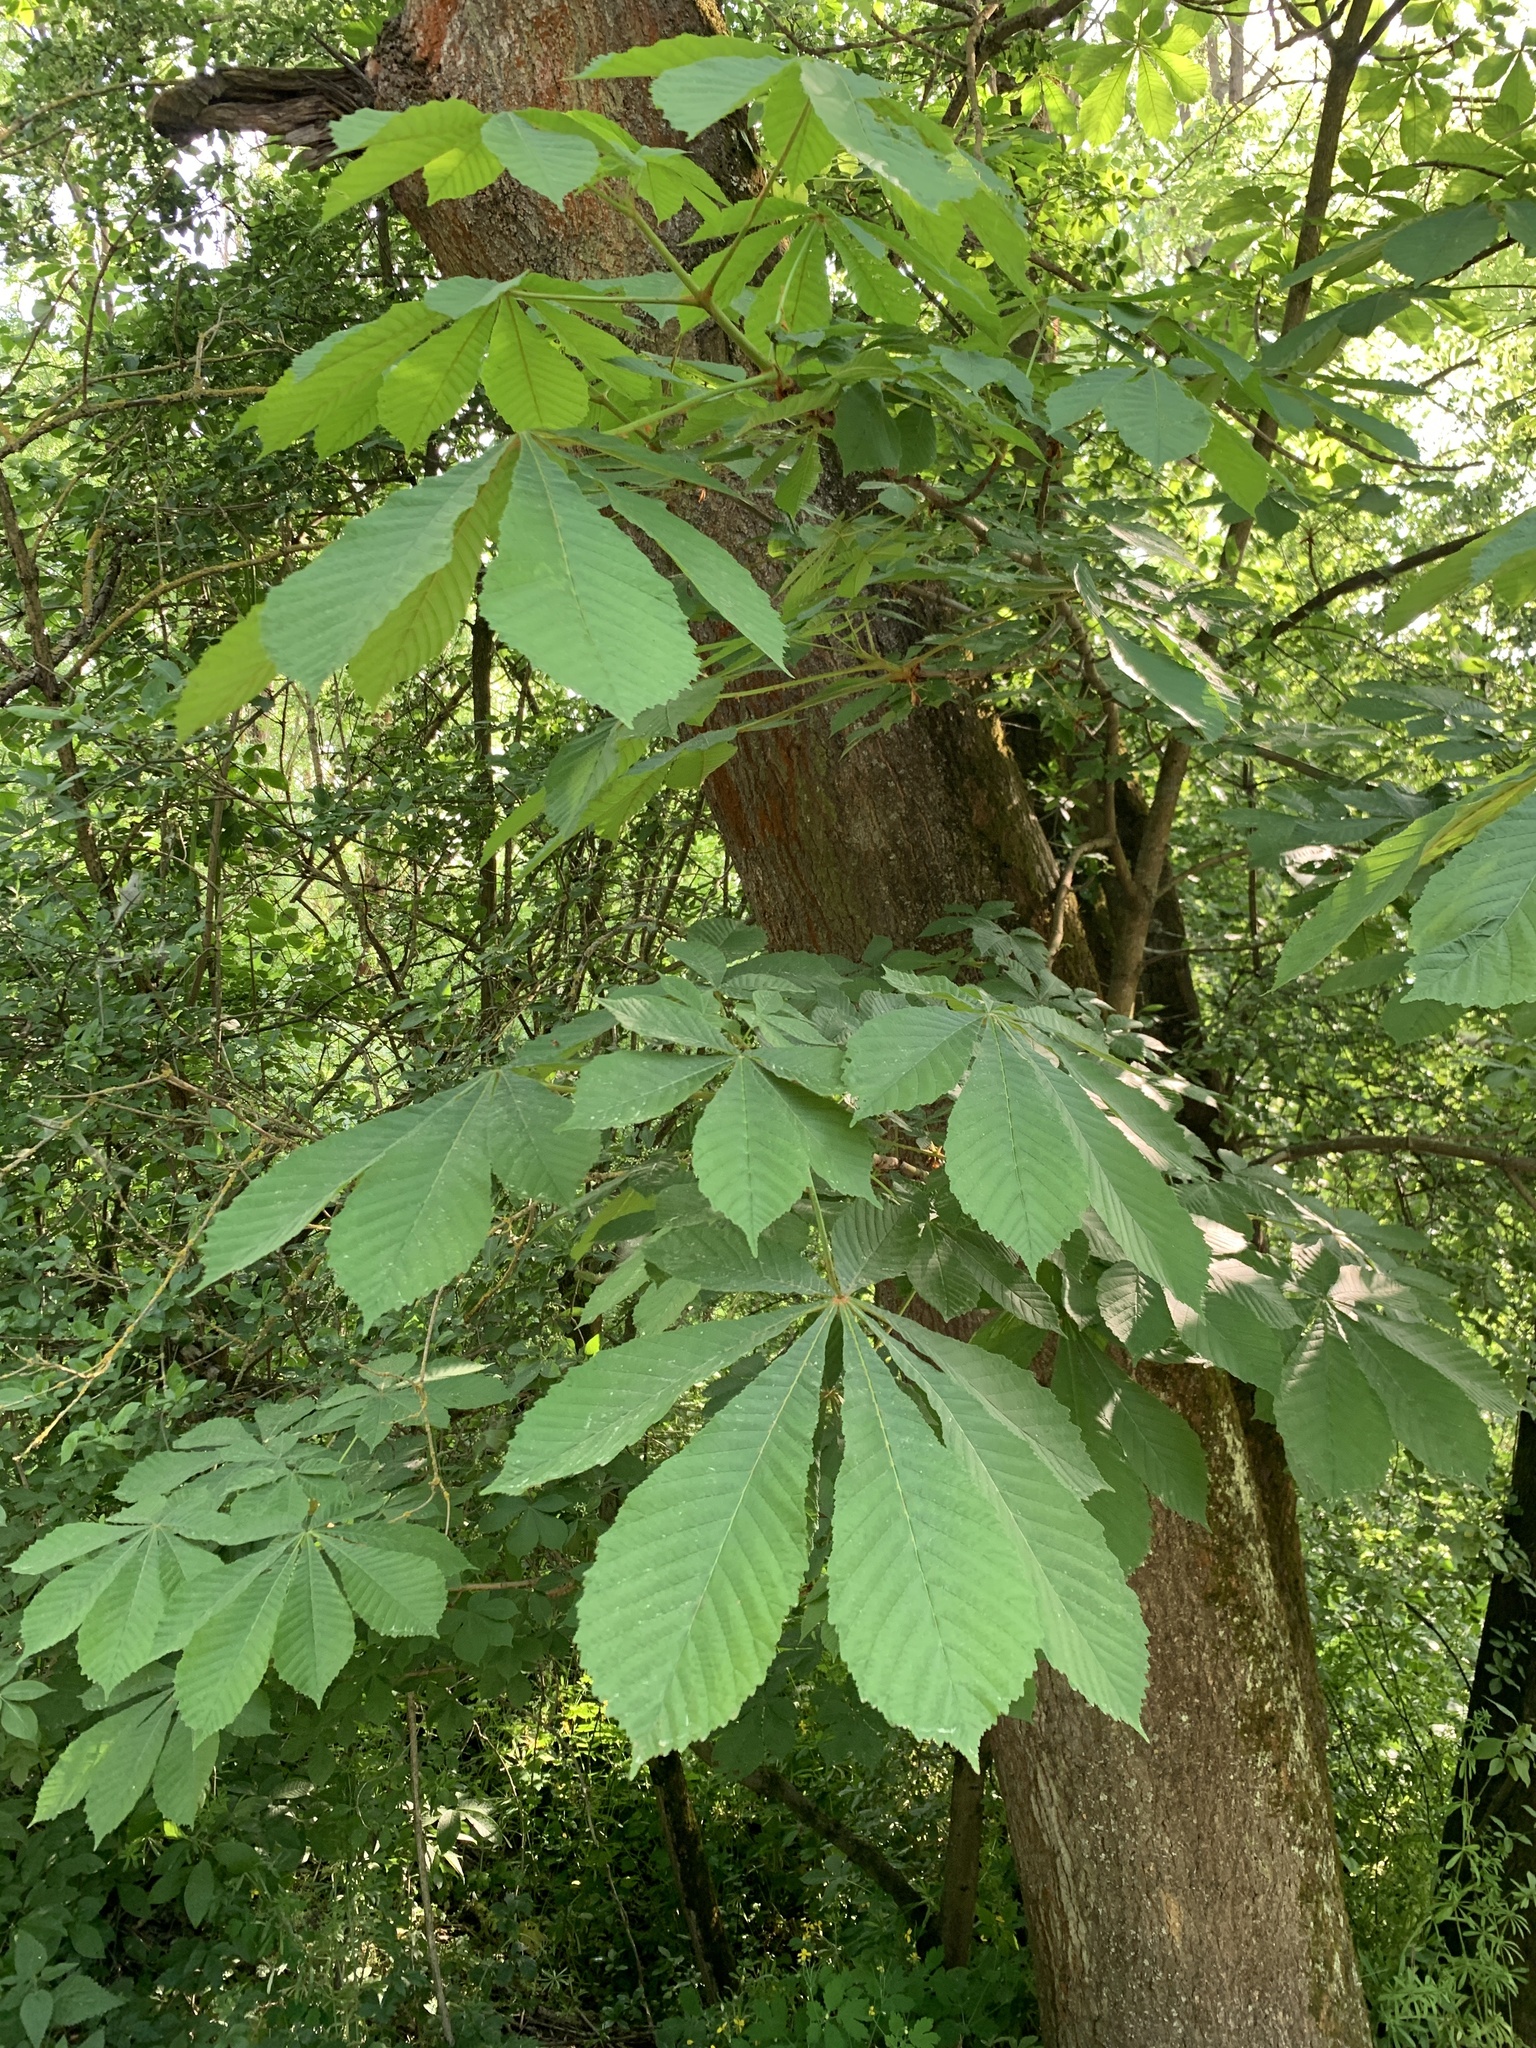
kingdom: Plantae
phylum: Tracheophyta
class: Magnoliopsida
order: Sapindales
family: Sapindaceae
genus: Aesculus
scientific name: Aesculus hippocastanum
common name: Horse-chestnut
